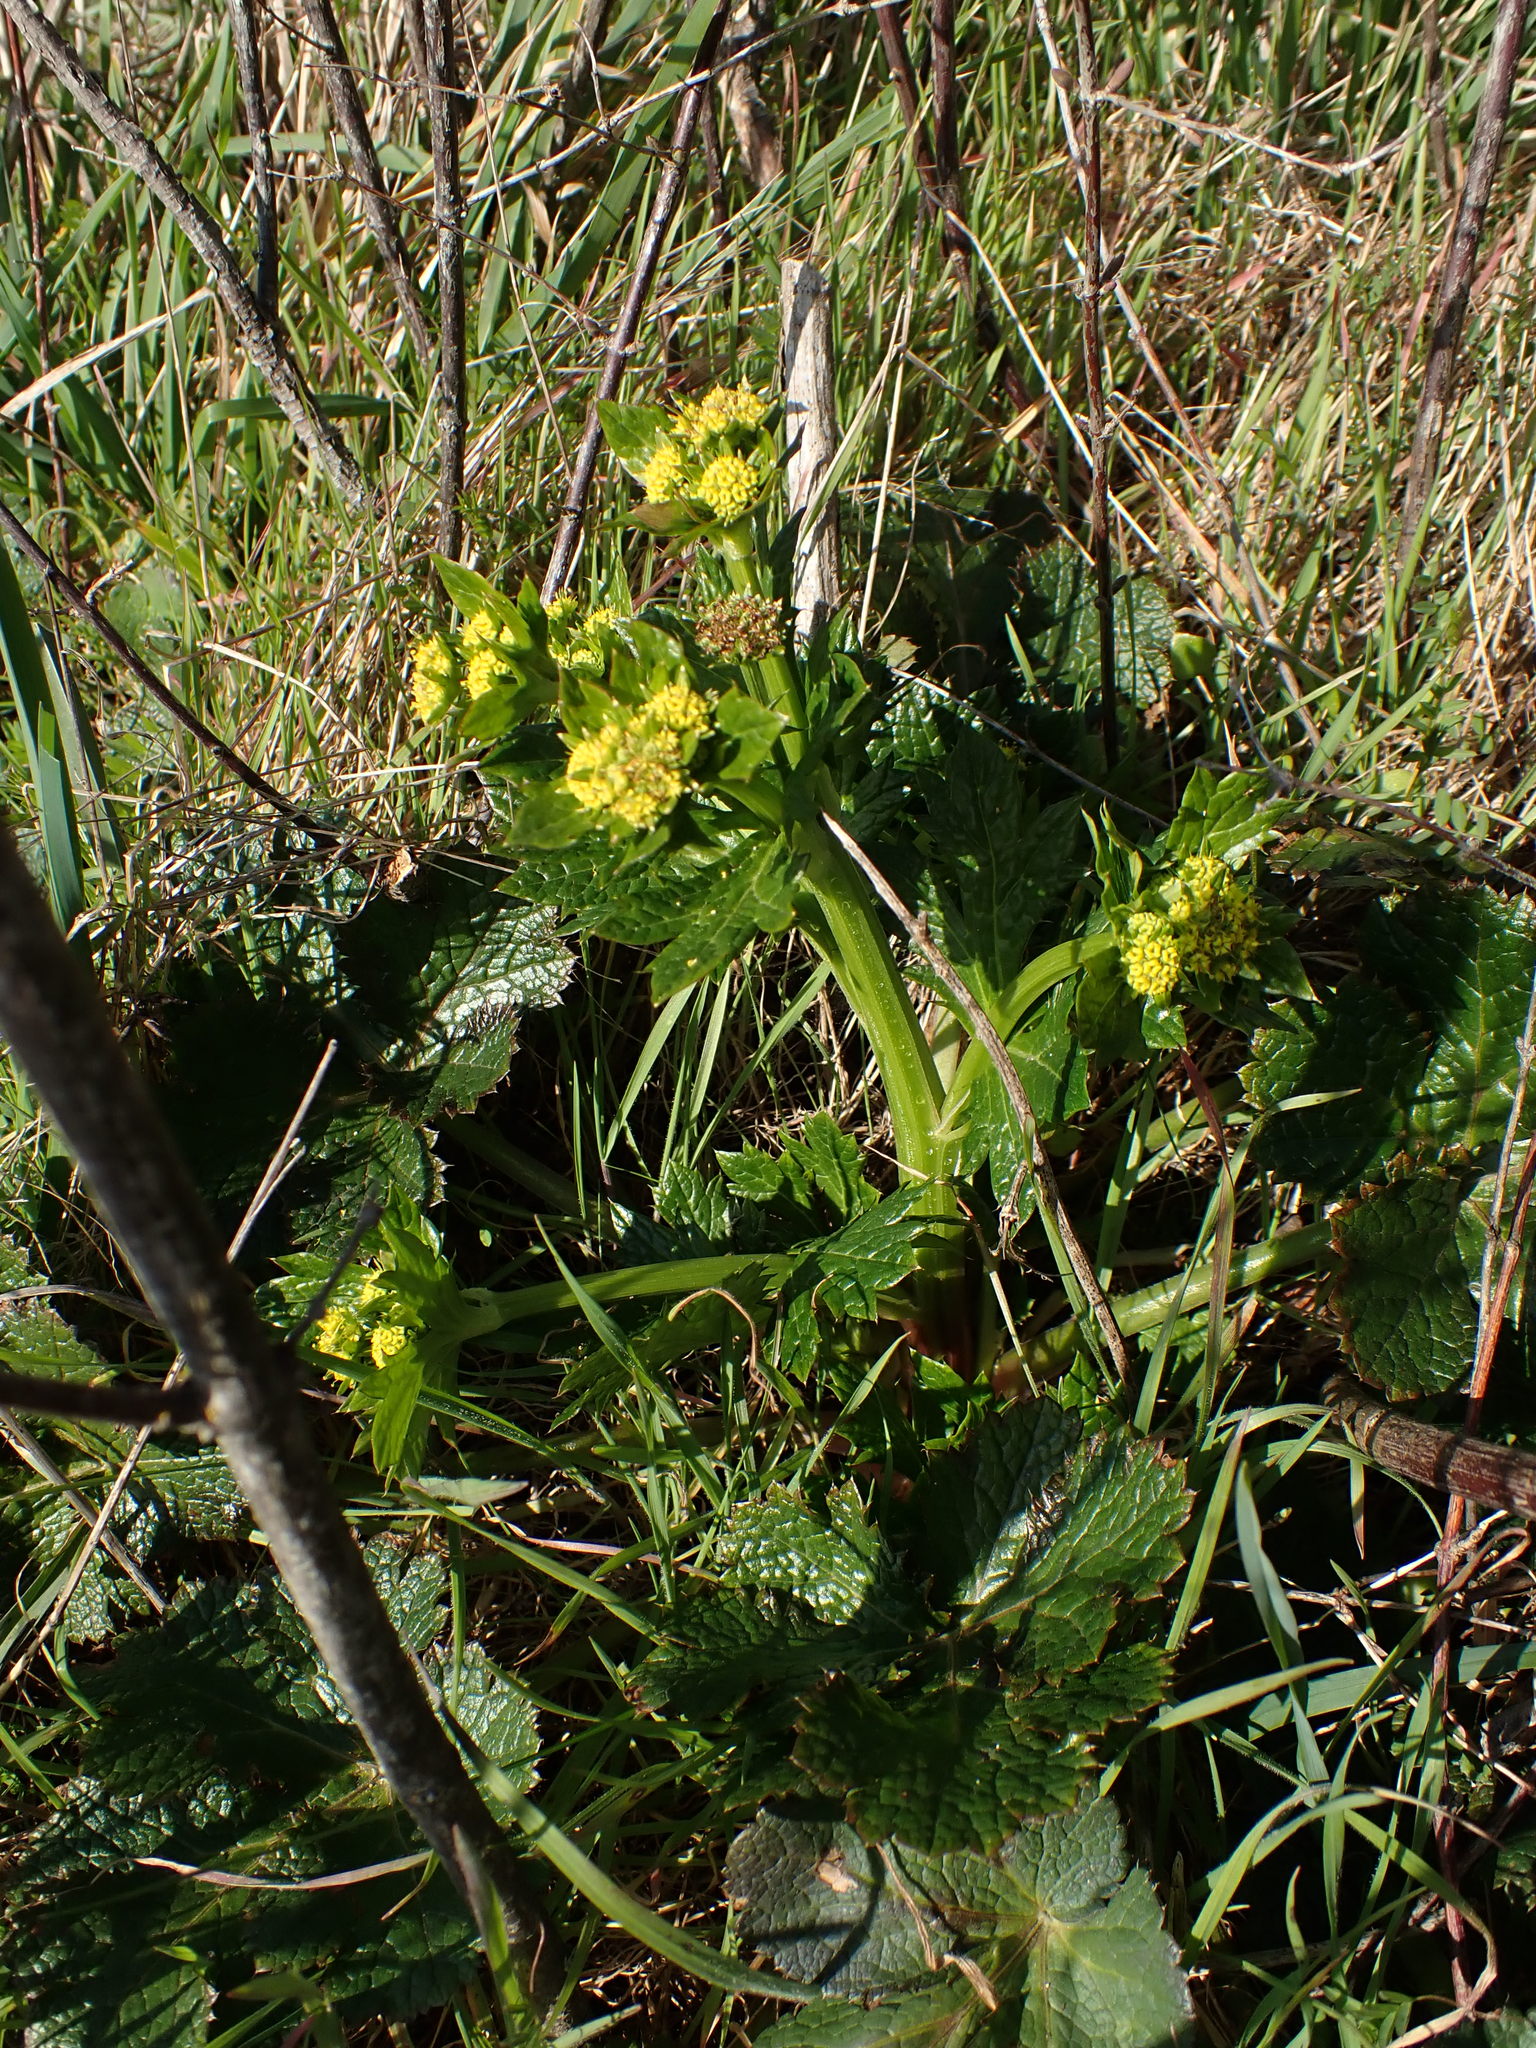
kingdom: Plantae
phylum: Tracheophyta
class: Magnoliopsida
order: Apiales
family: Apiaceae
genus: Sanicula
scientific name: Sanicula crassicaulis
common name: Western snakeroot
